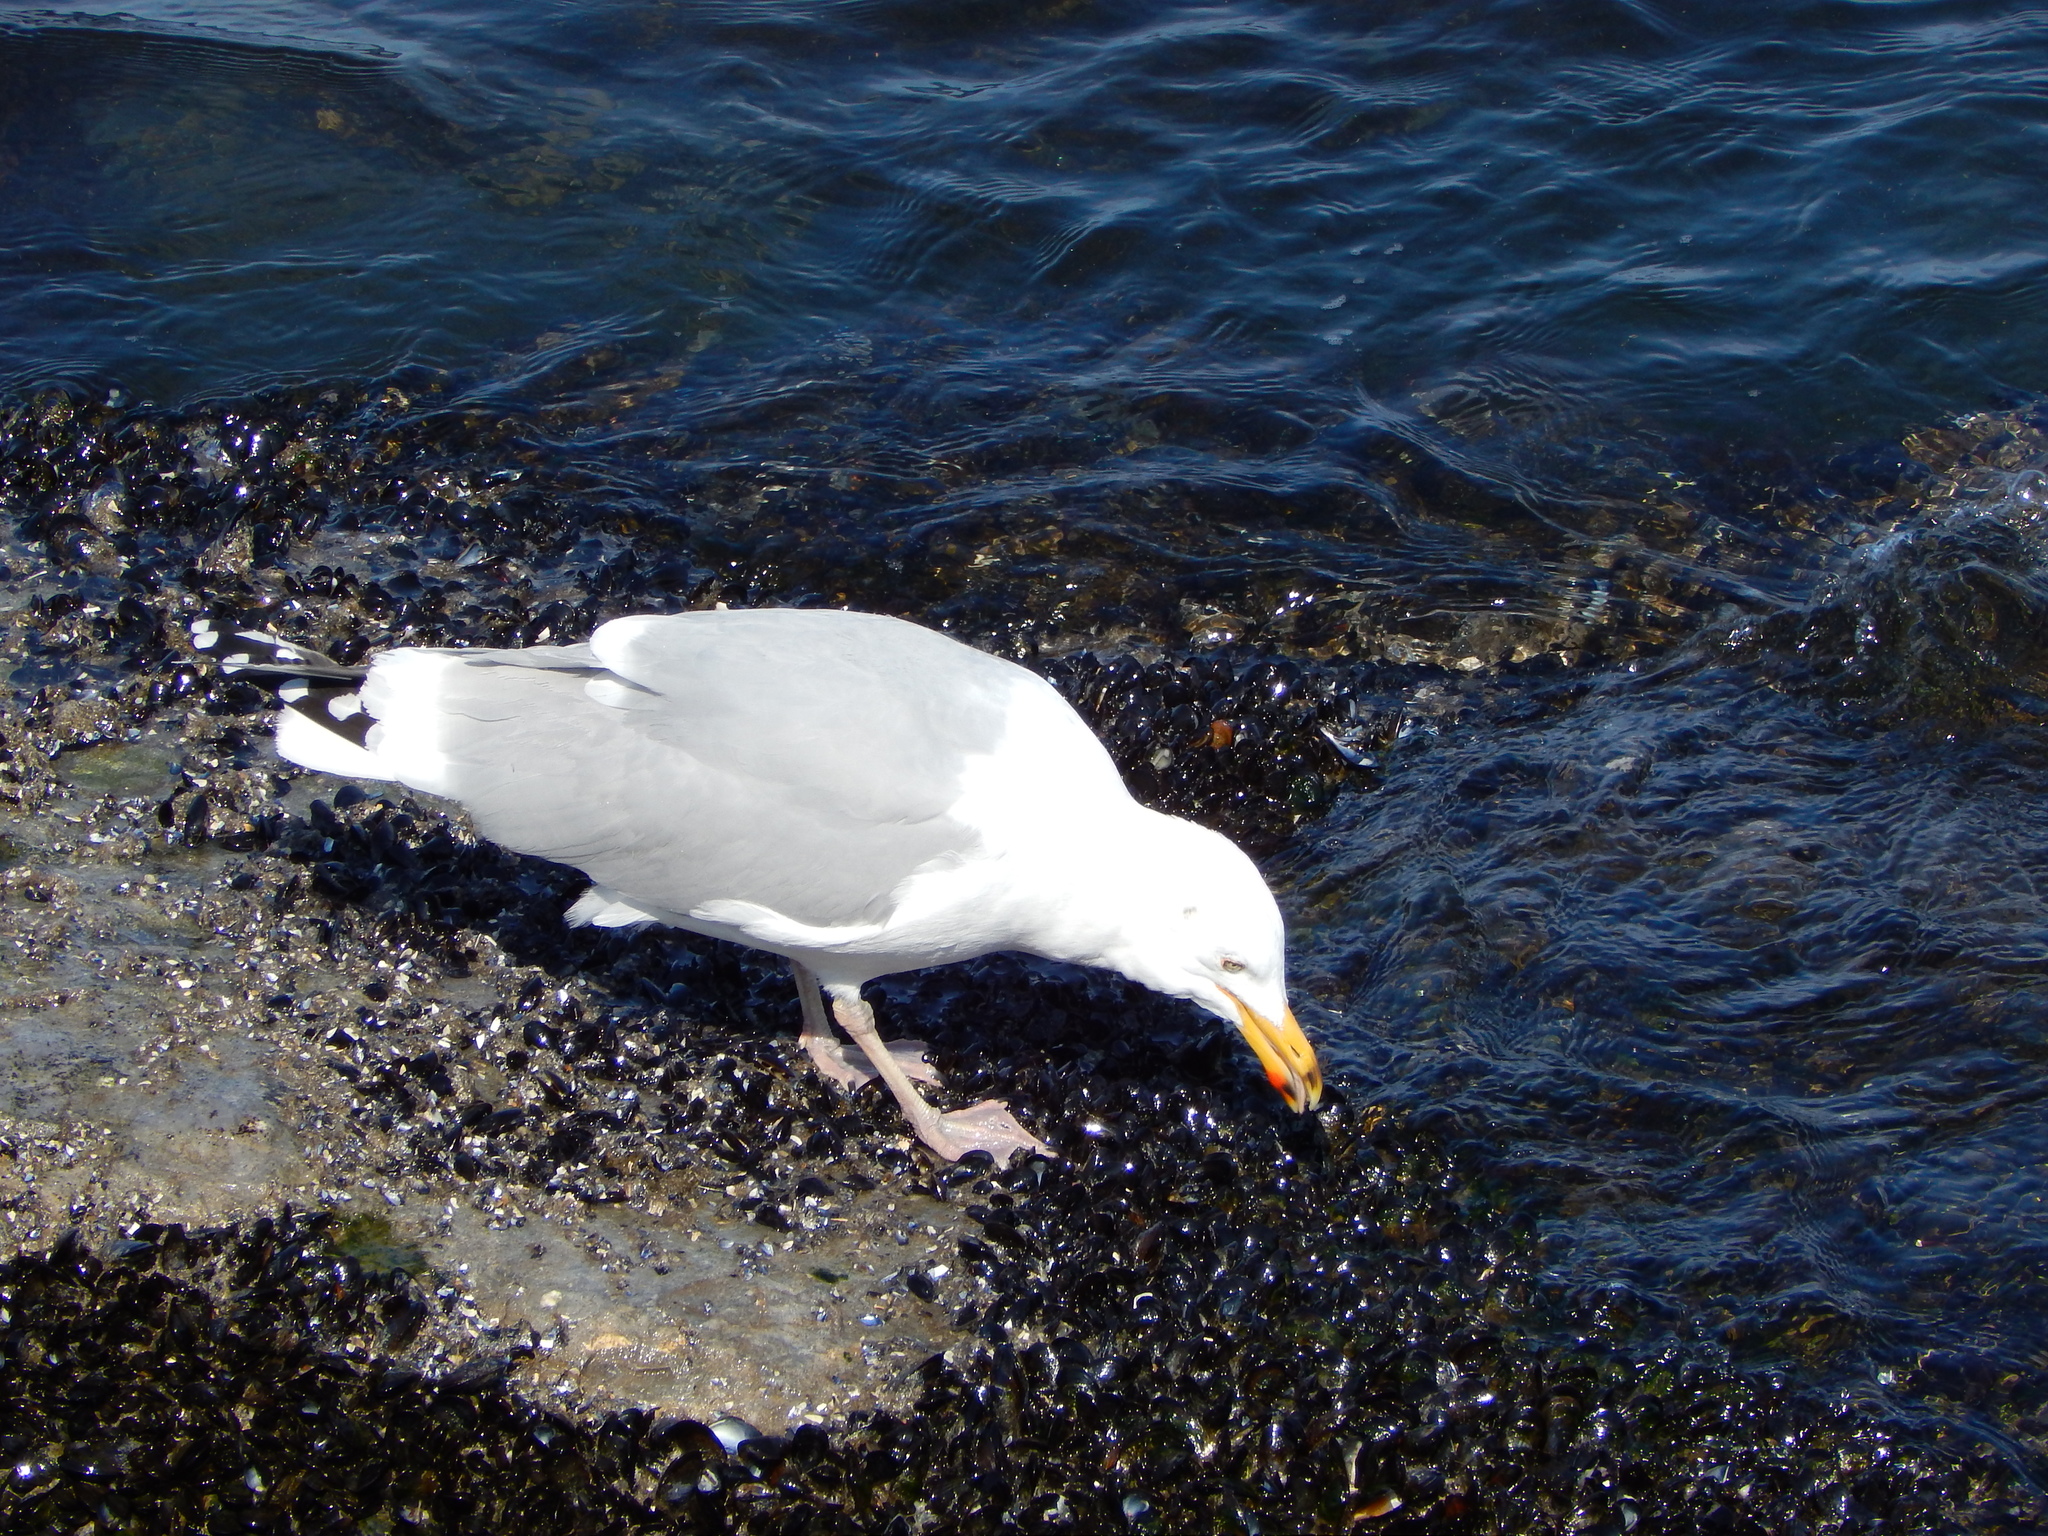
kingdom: Animalia
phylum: Chordata
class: Aves
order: Charadriiformes
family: Laridae
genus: Larus
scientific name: Larus argentatus
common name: Herring gull
